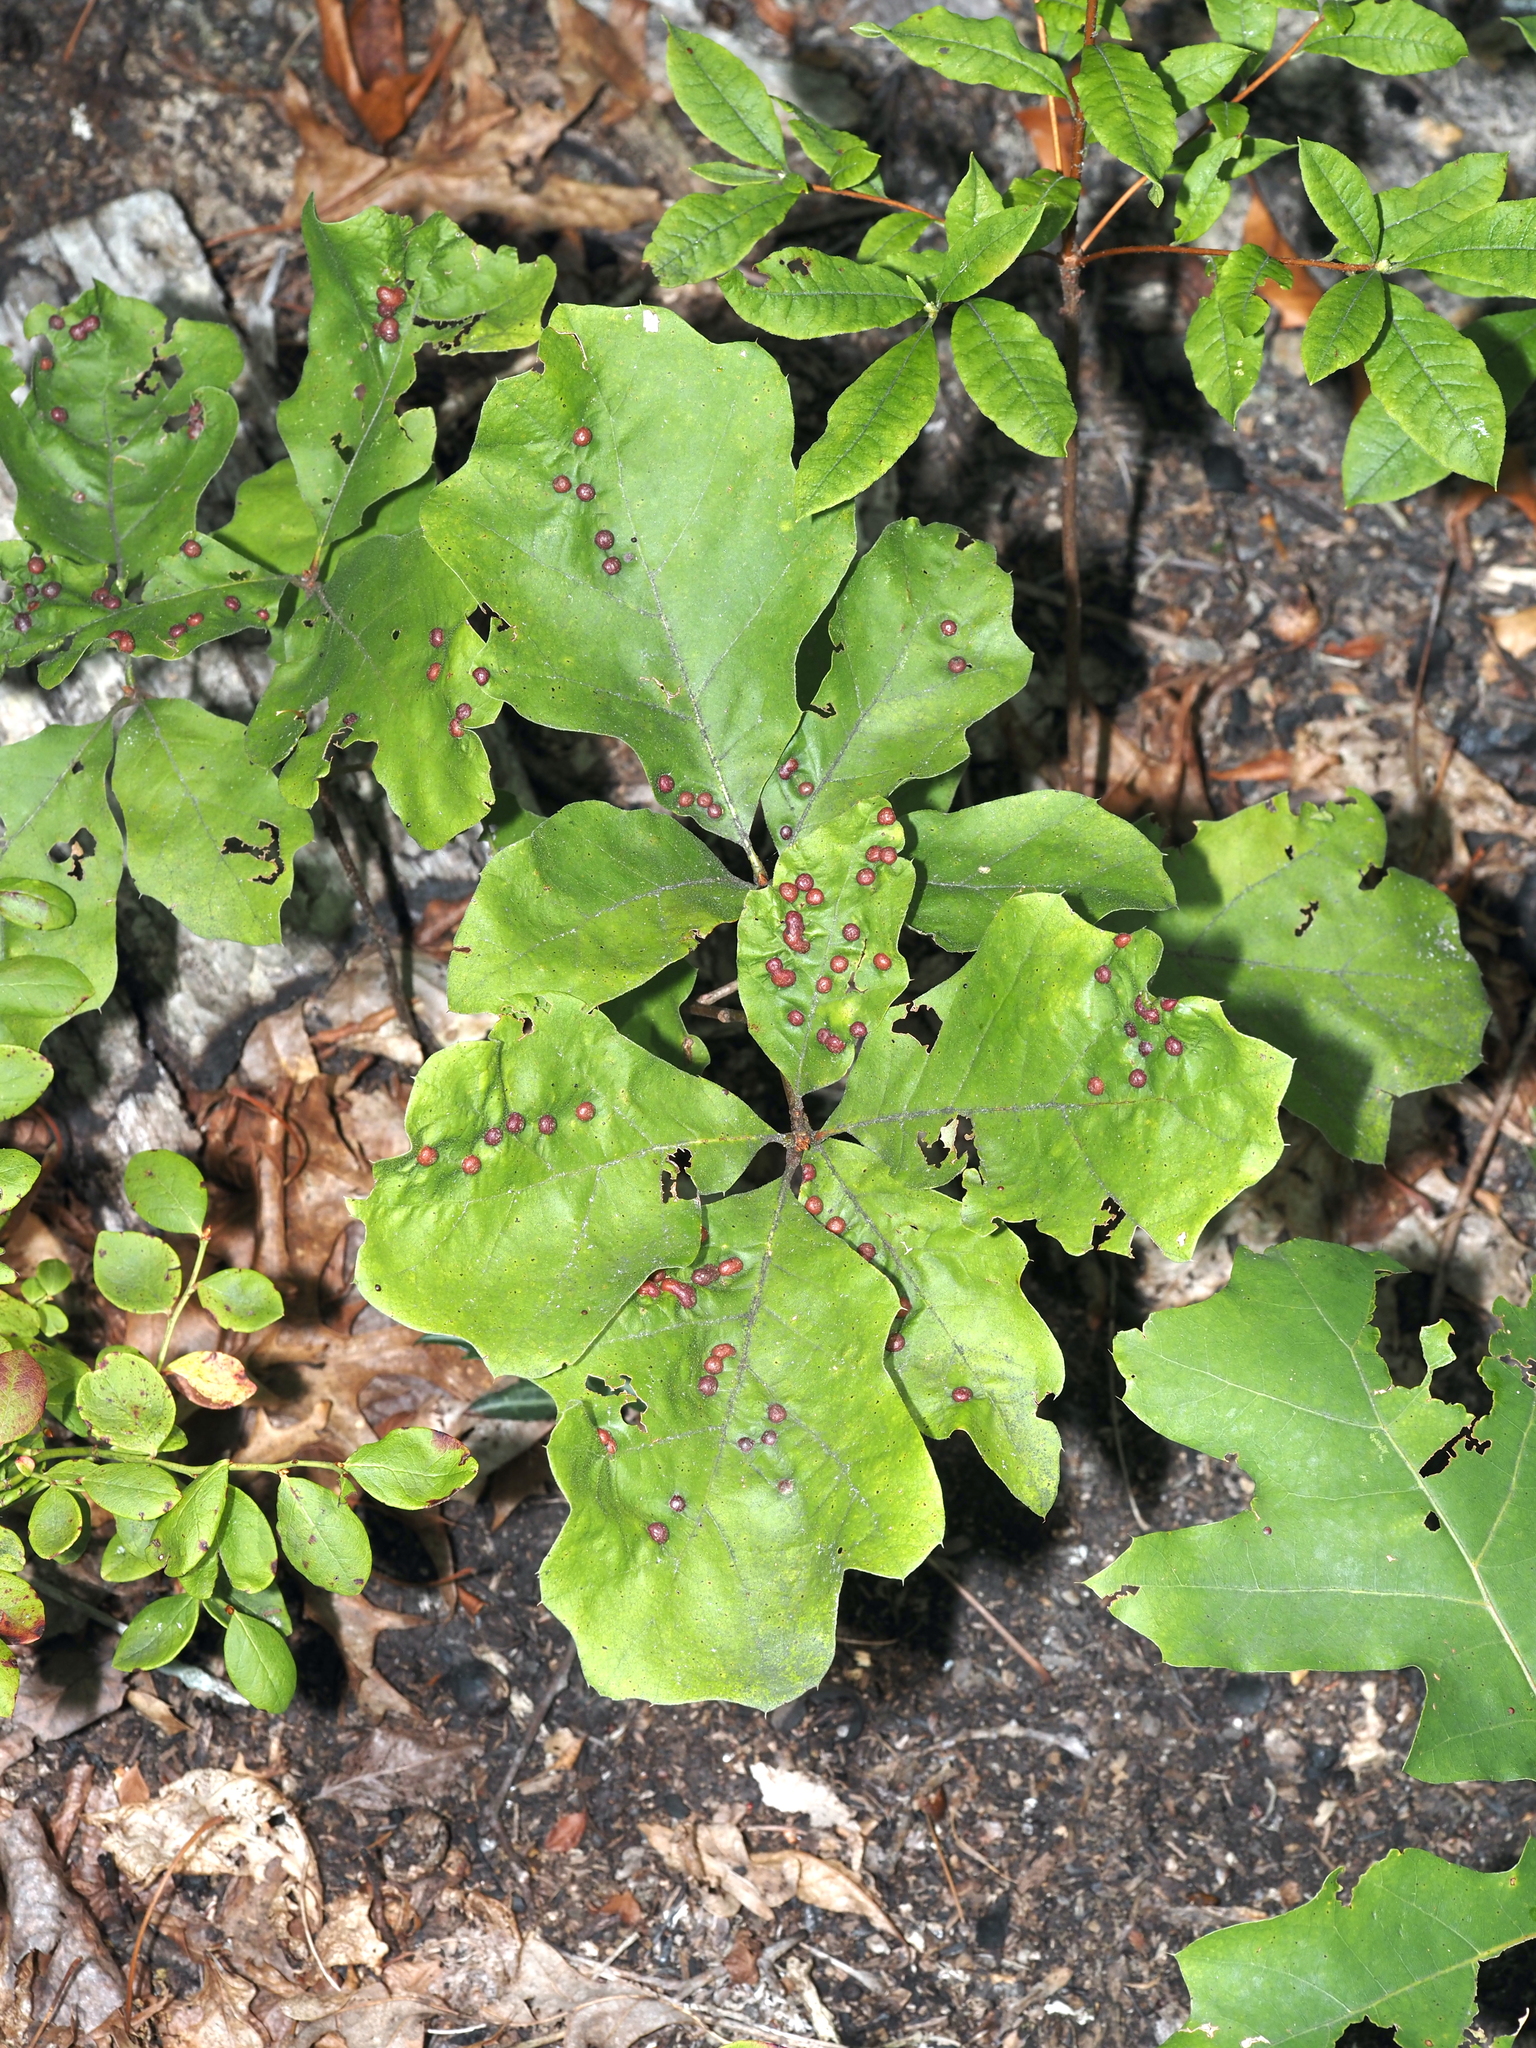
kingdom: Animalia
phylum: Arthropoda
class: Insecta
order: Diptera
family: Cecidomyiidae
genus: Polystepha
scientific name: Polystepha pilulae
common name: Oak leaf gall midge
